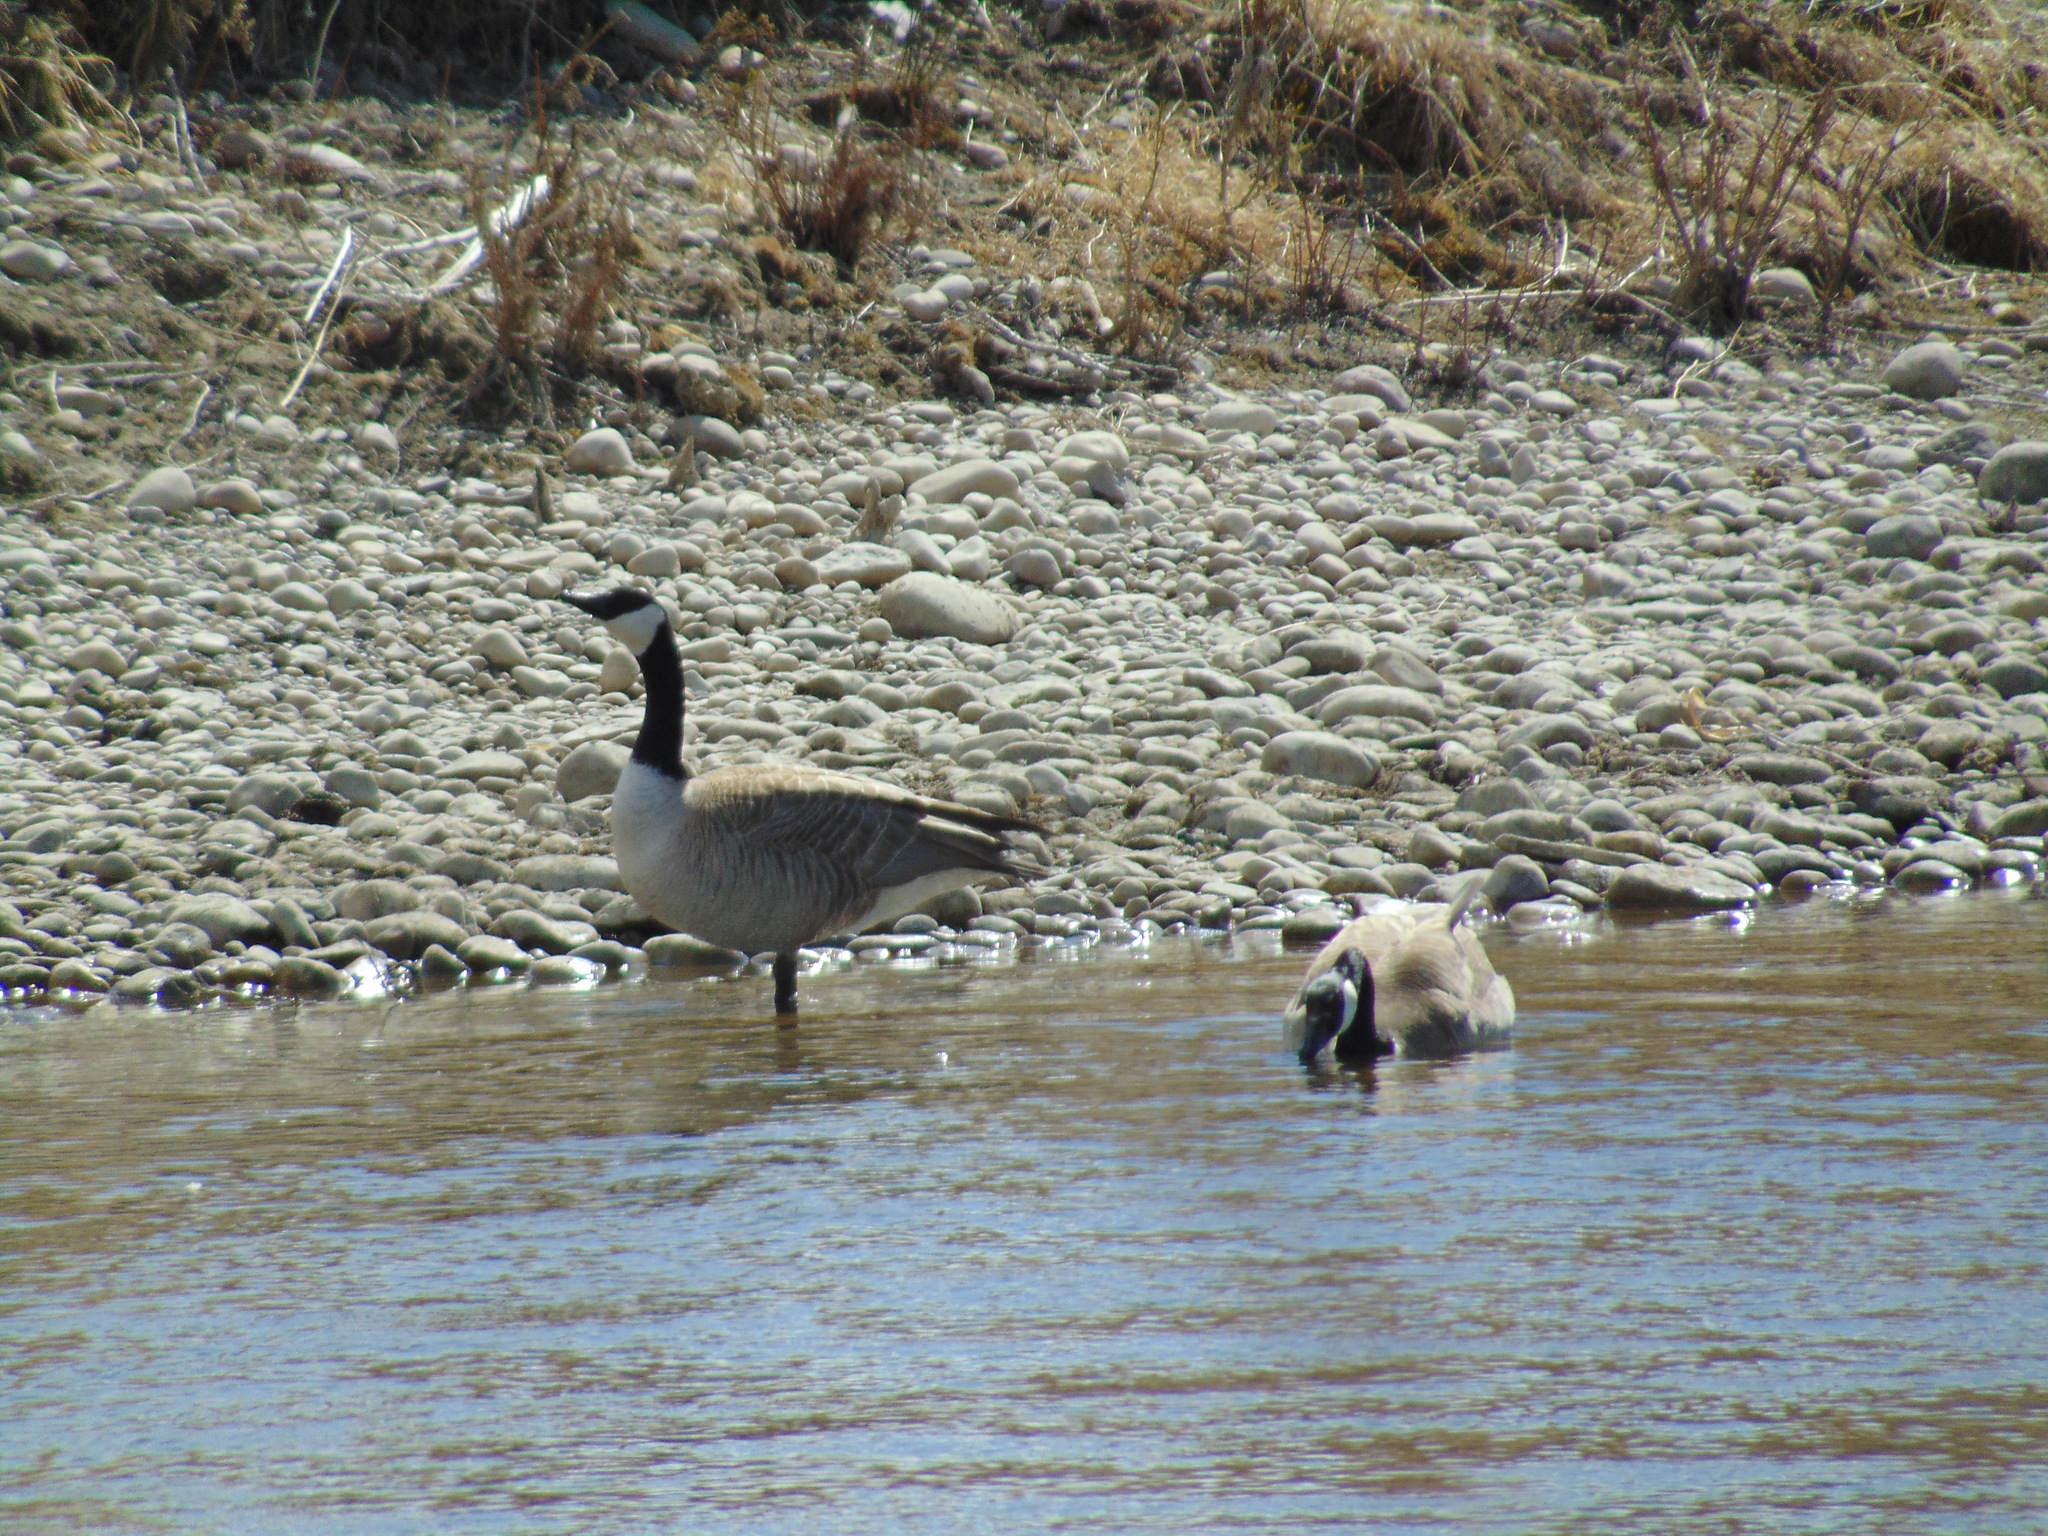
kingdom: Animalia
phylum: Chordata
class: Aves
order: Anseriformes
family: Anatidae
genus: Branta
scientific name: Branta canadensis
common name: Canada goose
